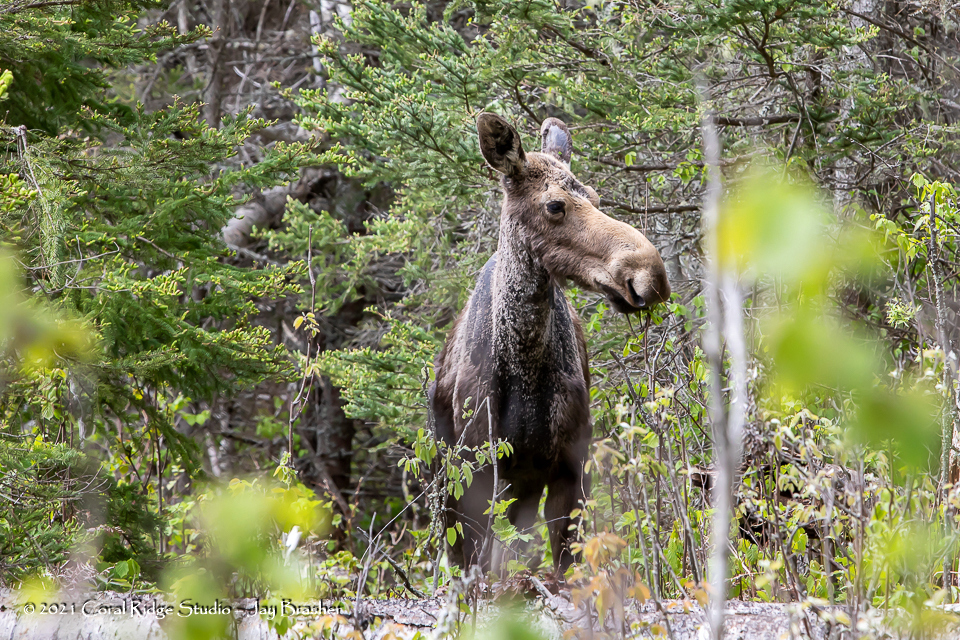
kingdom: Animalia
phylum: Chordata
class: Mammalia
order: Artiodactyla
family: Cervidae
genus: Alces
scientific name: Alces alces
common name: Moose
